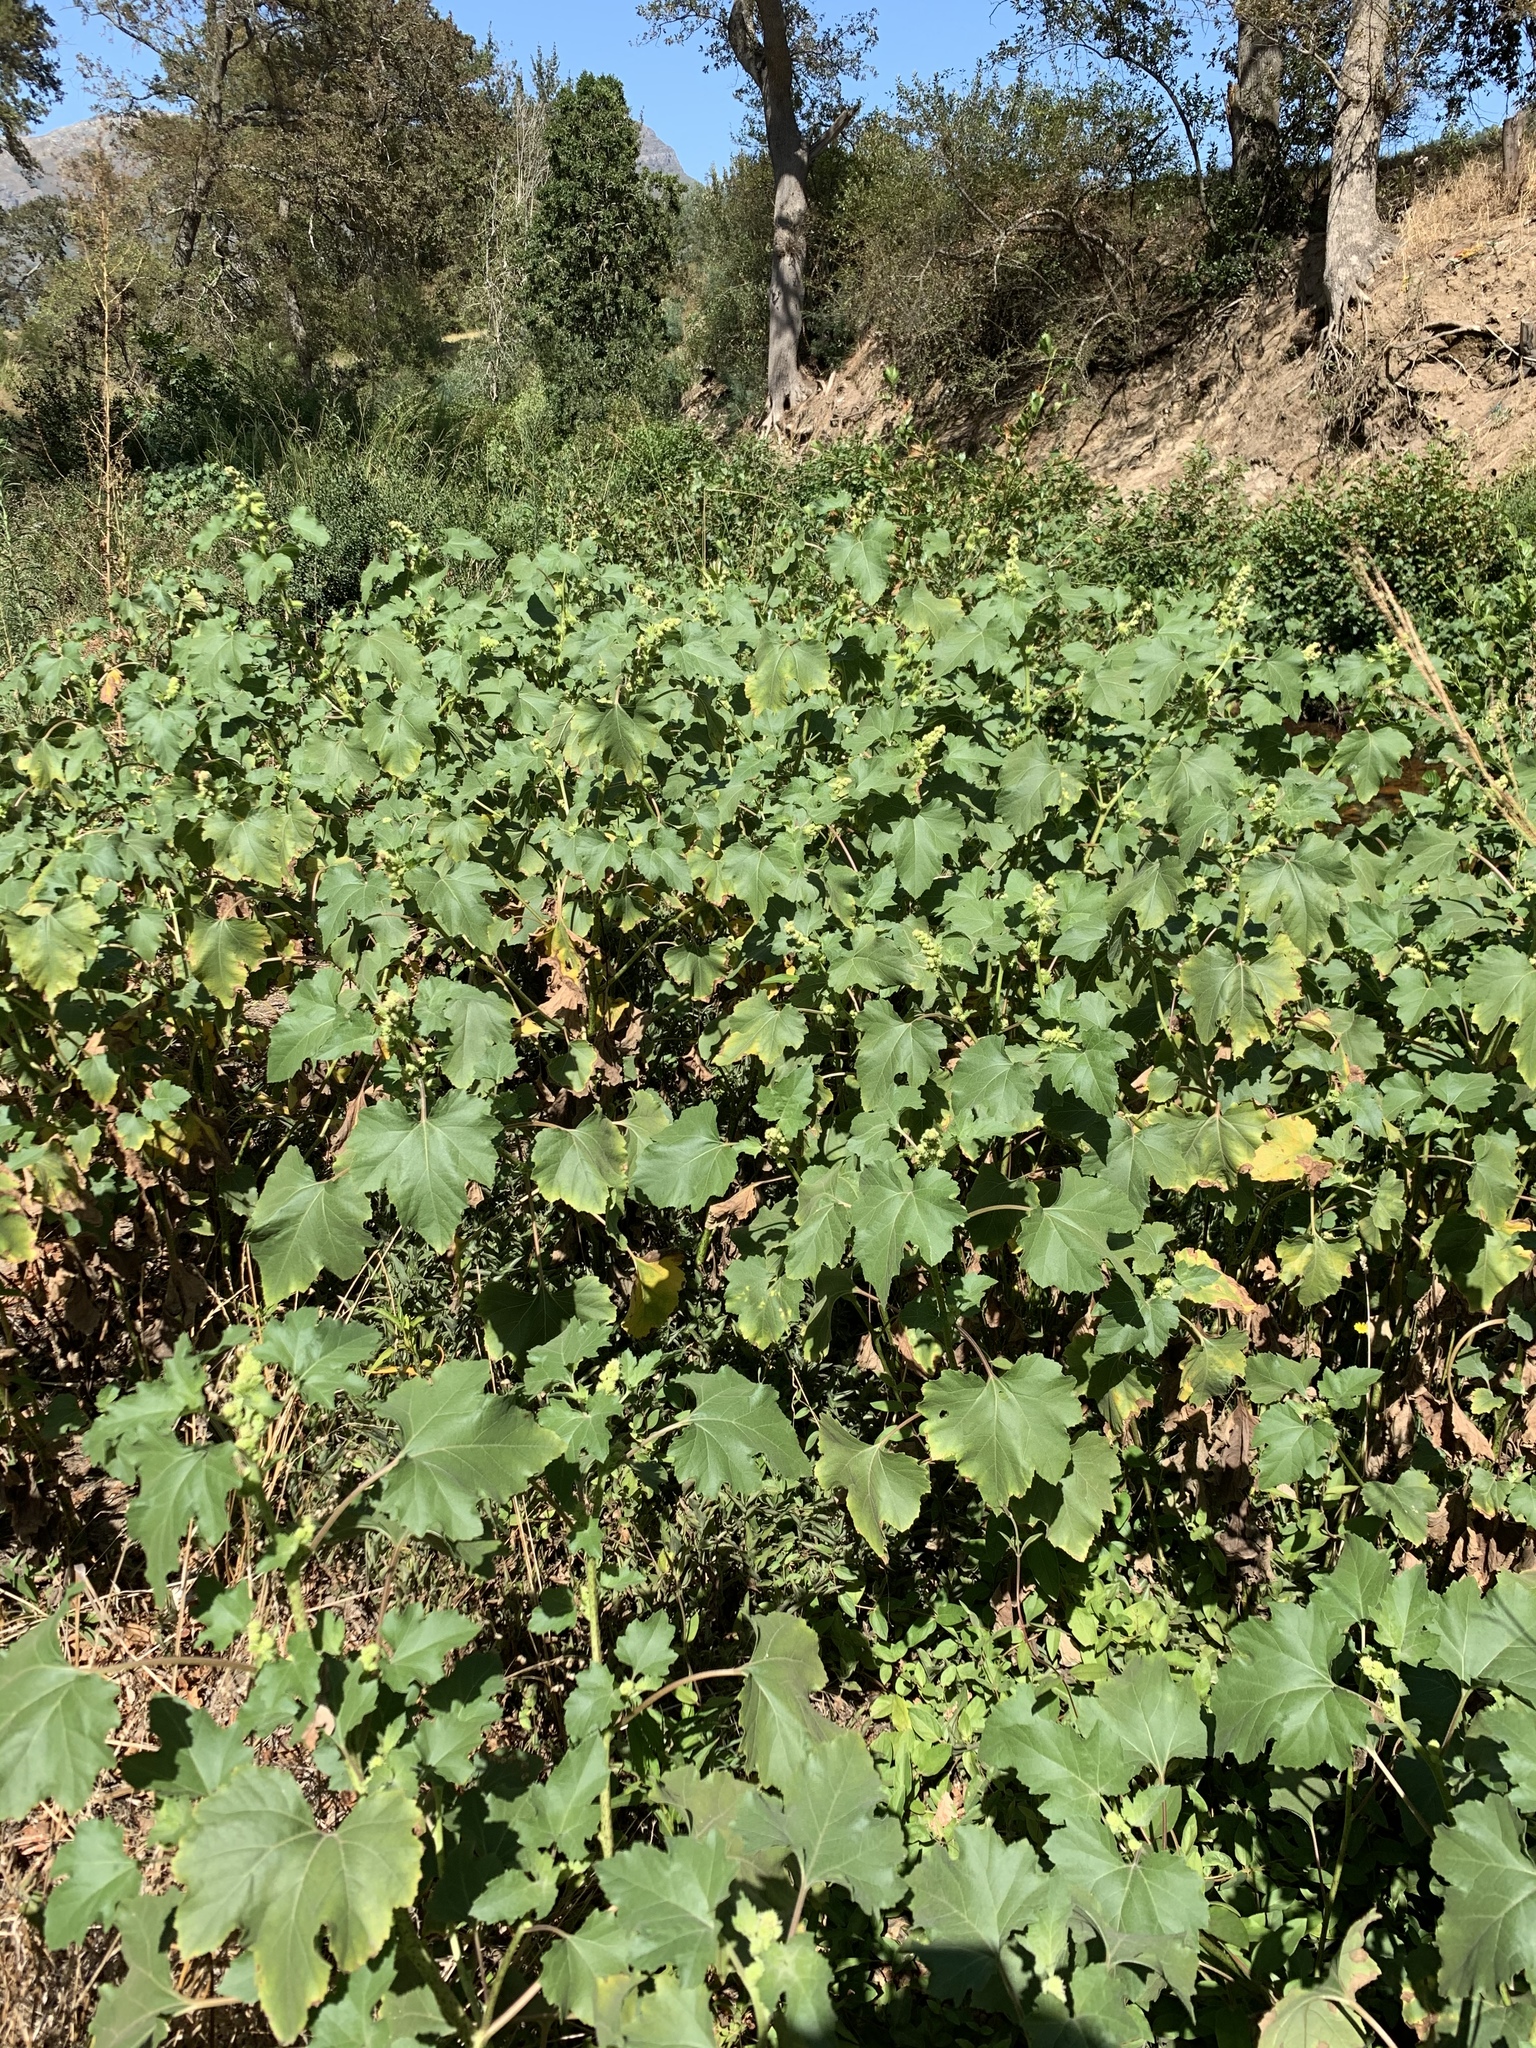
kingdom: Plantae
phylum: Tracheophyta
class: Magnoliopsida
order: Asterales
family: Asteraceae
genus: Xanthium
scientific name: Xanthium strumarium
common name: Rough cocklebur
